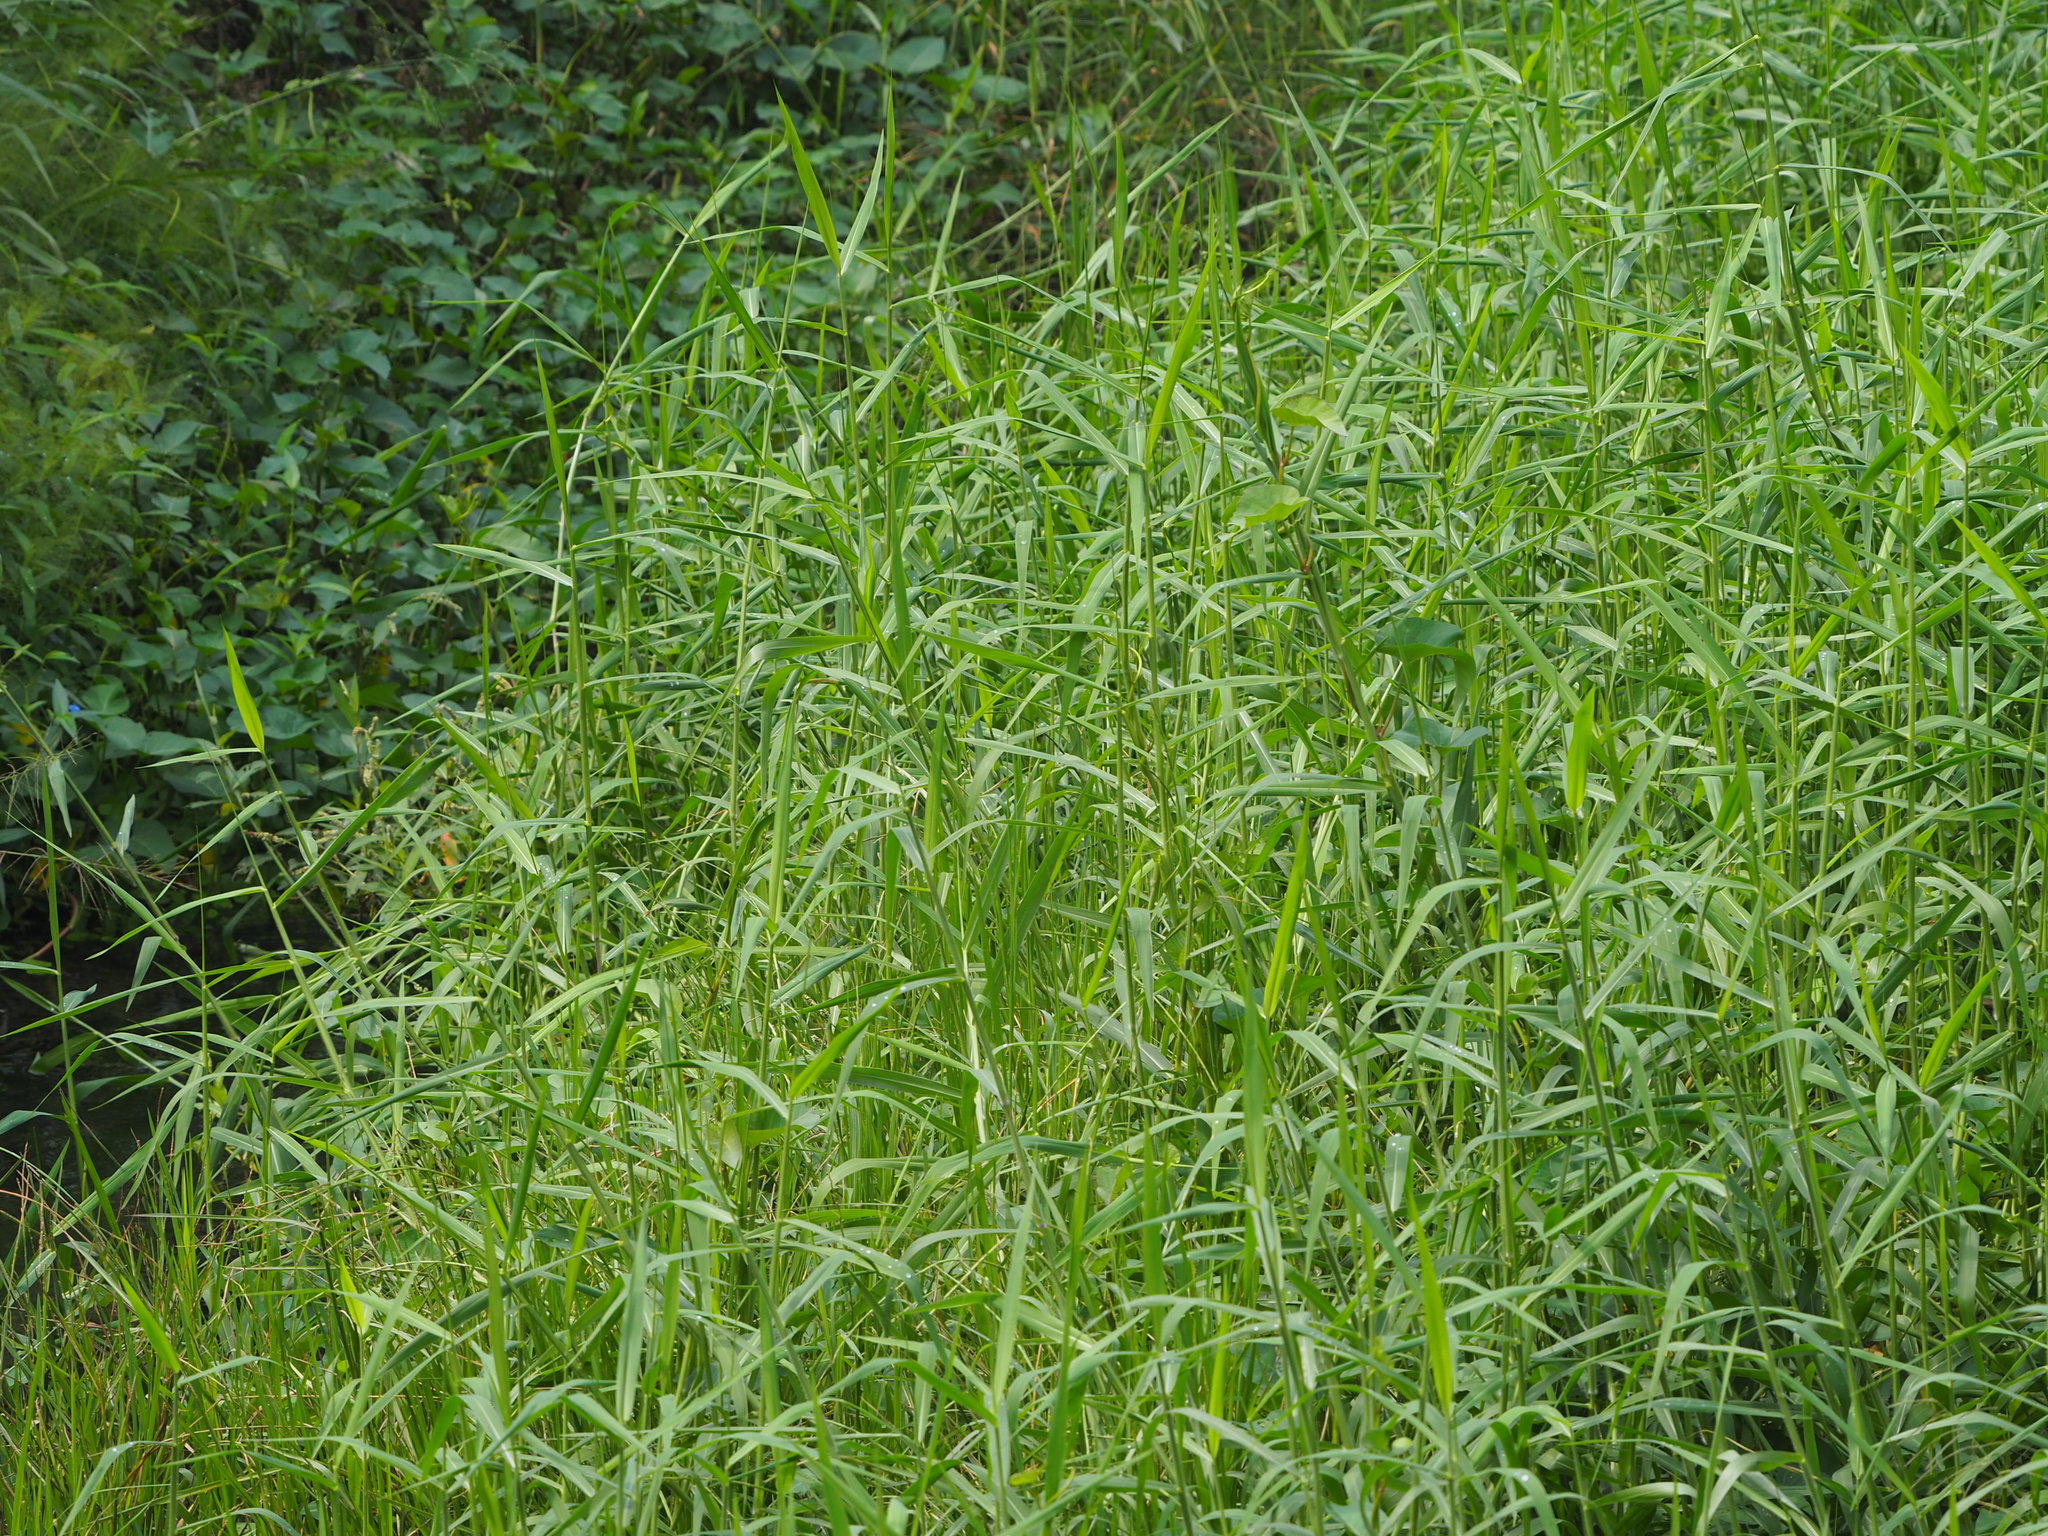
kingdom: Plantae
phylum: Tracheophyta
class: Liliopsida
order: Poales
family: Poaceae
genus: Urochloa
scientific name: Urochloa mutica
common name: Para grass
